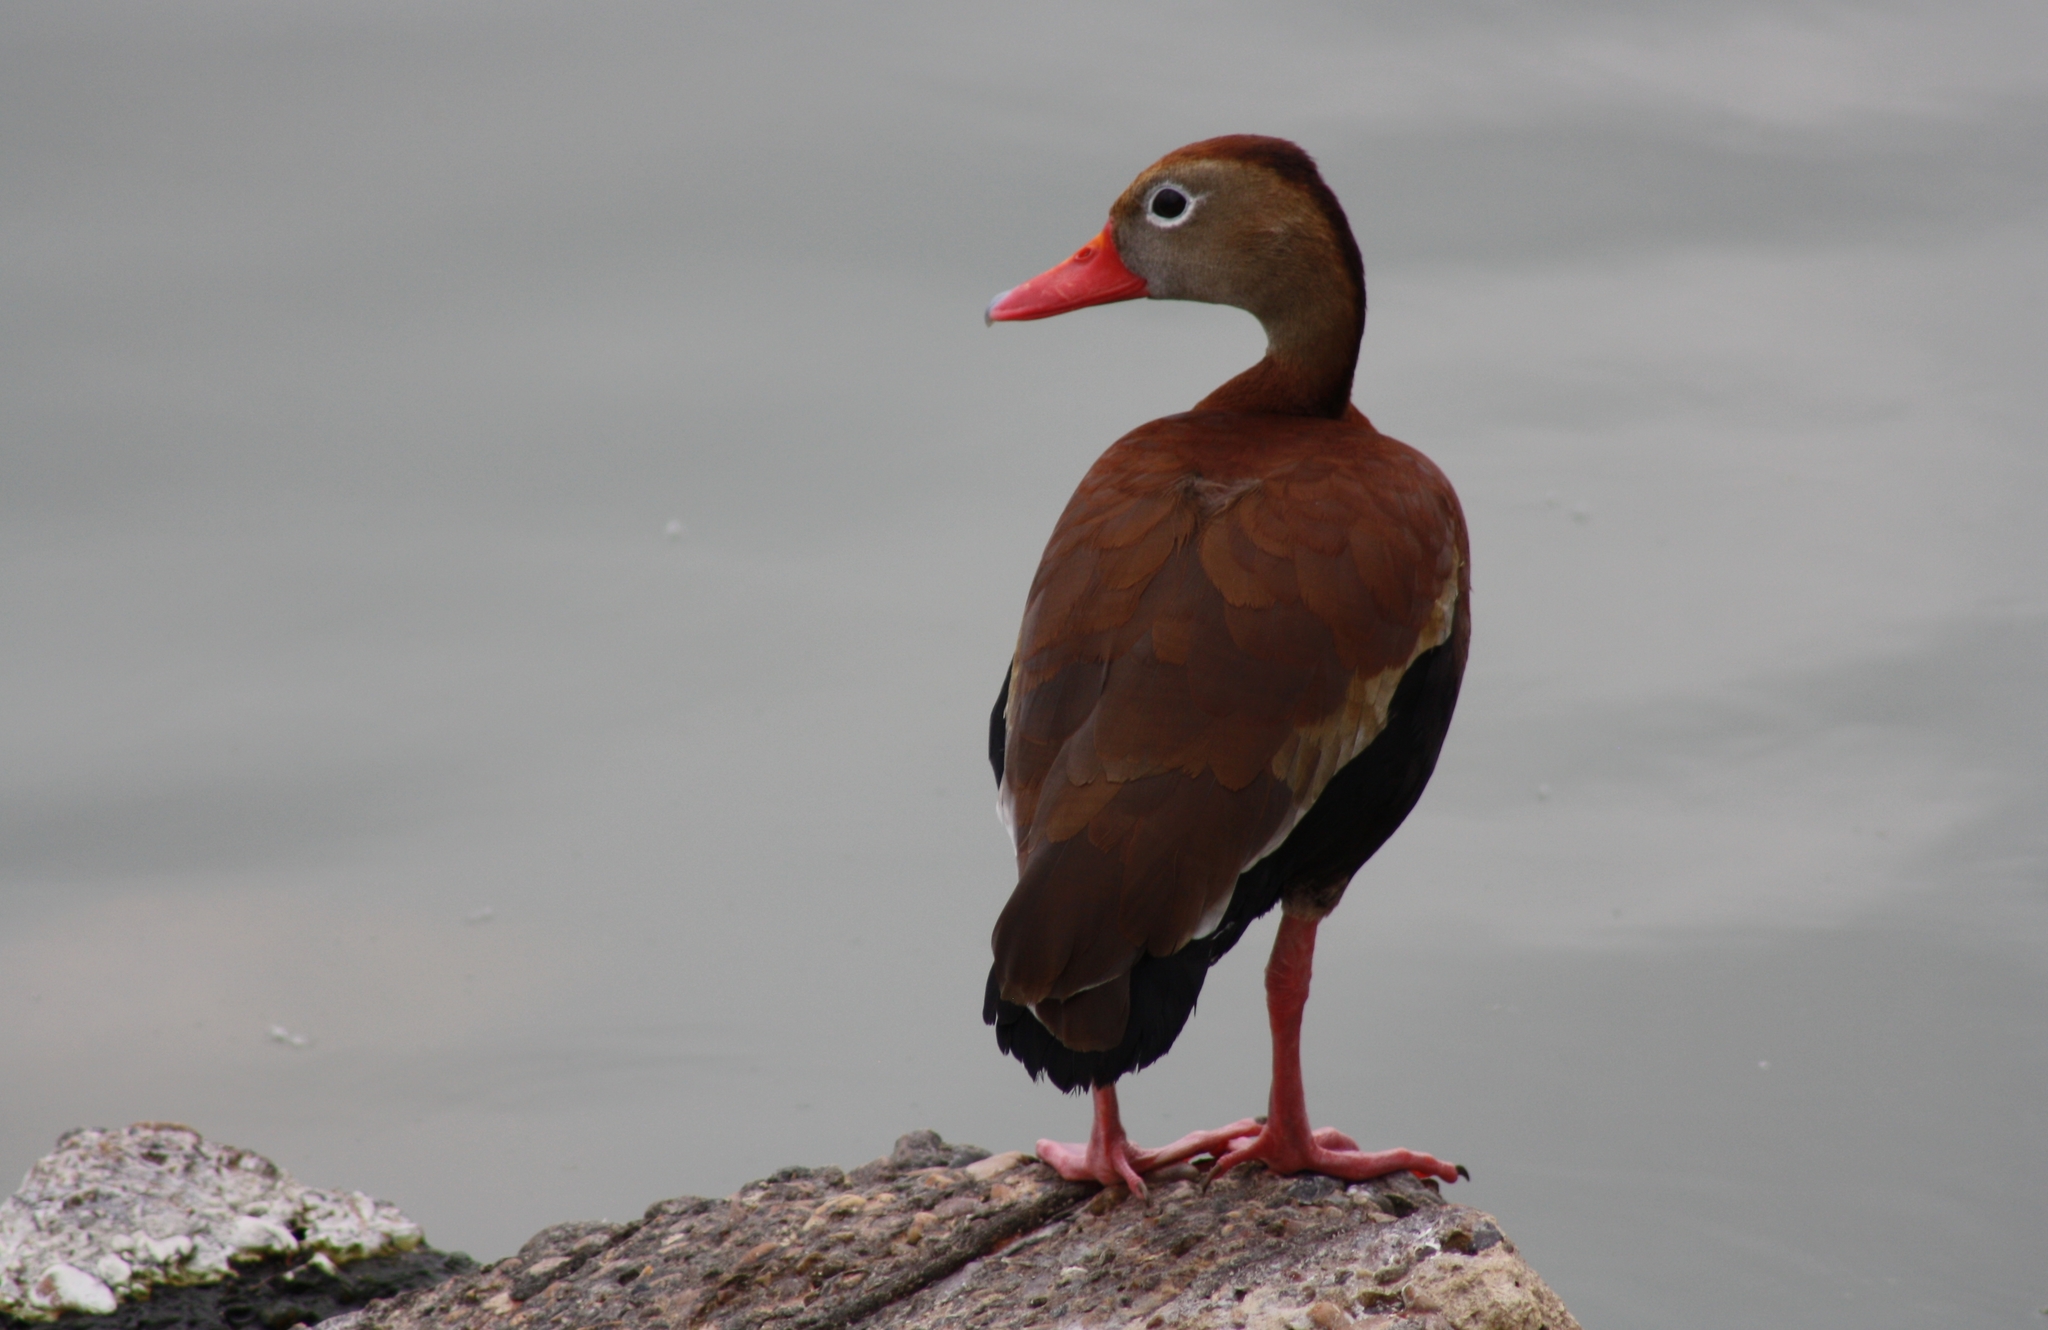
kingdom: Animalia
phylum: Chordata
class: Aves
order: Anseriformes
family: Anatidae
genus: Dendrocygna
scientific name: Dendrocygna autumnalis
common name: Black-bellied whistling duck
